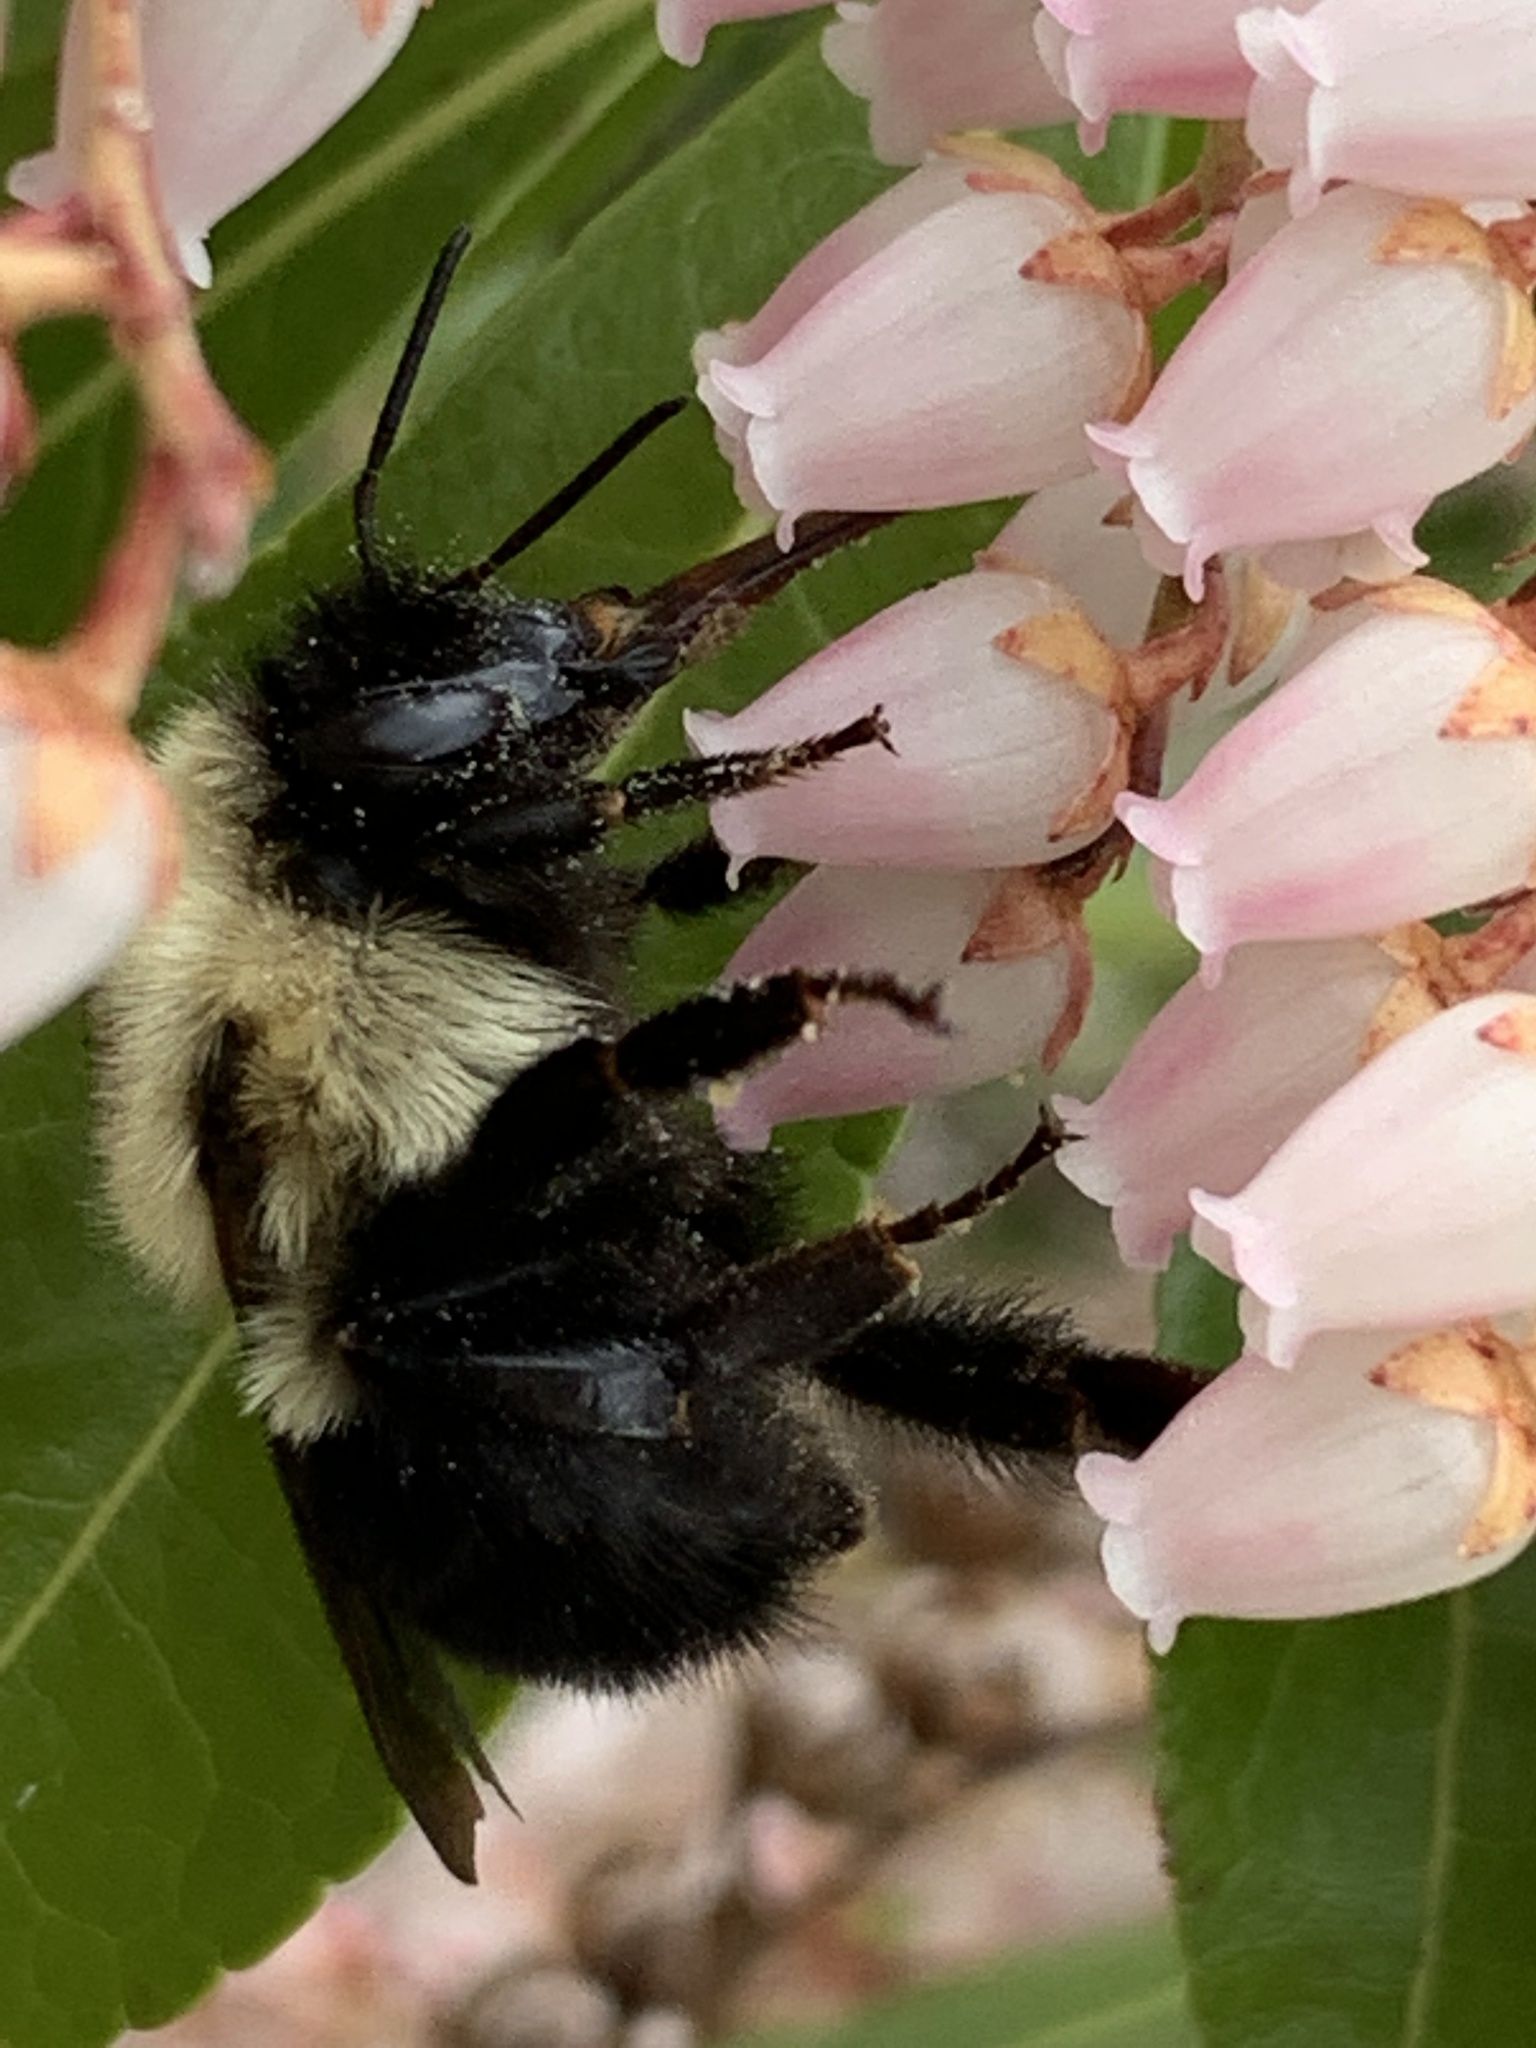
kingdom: Animalia
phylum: Arthropoda
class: Insecta
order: Hymenoptera
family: Apidae
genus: Bombus
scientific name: Bombus bimaculatus
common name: Two-spotted bumble bee
